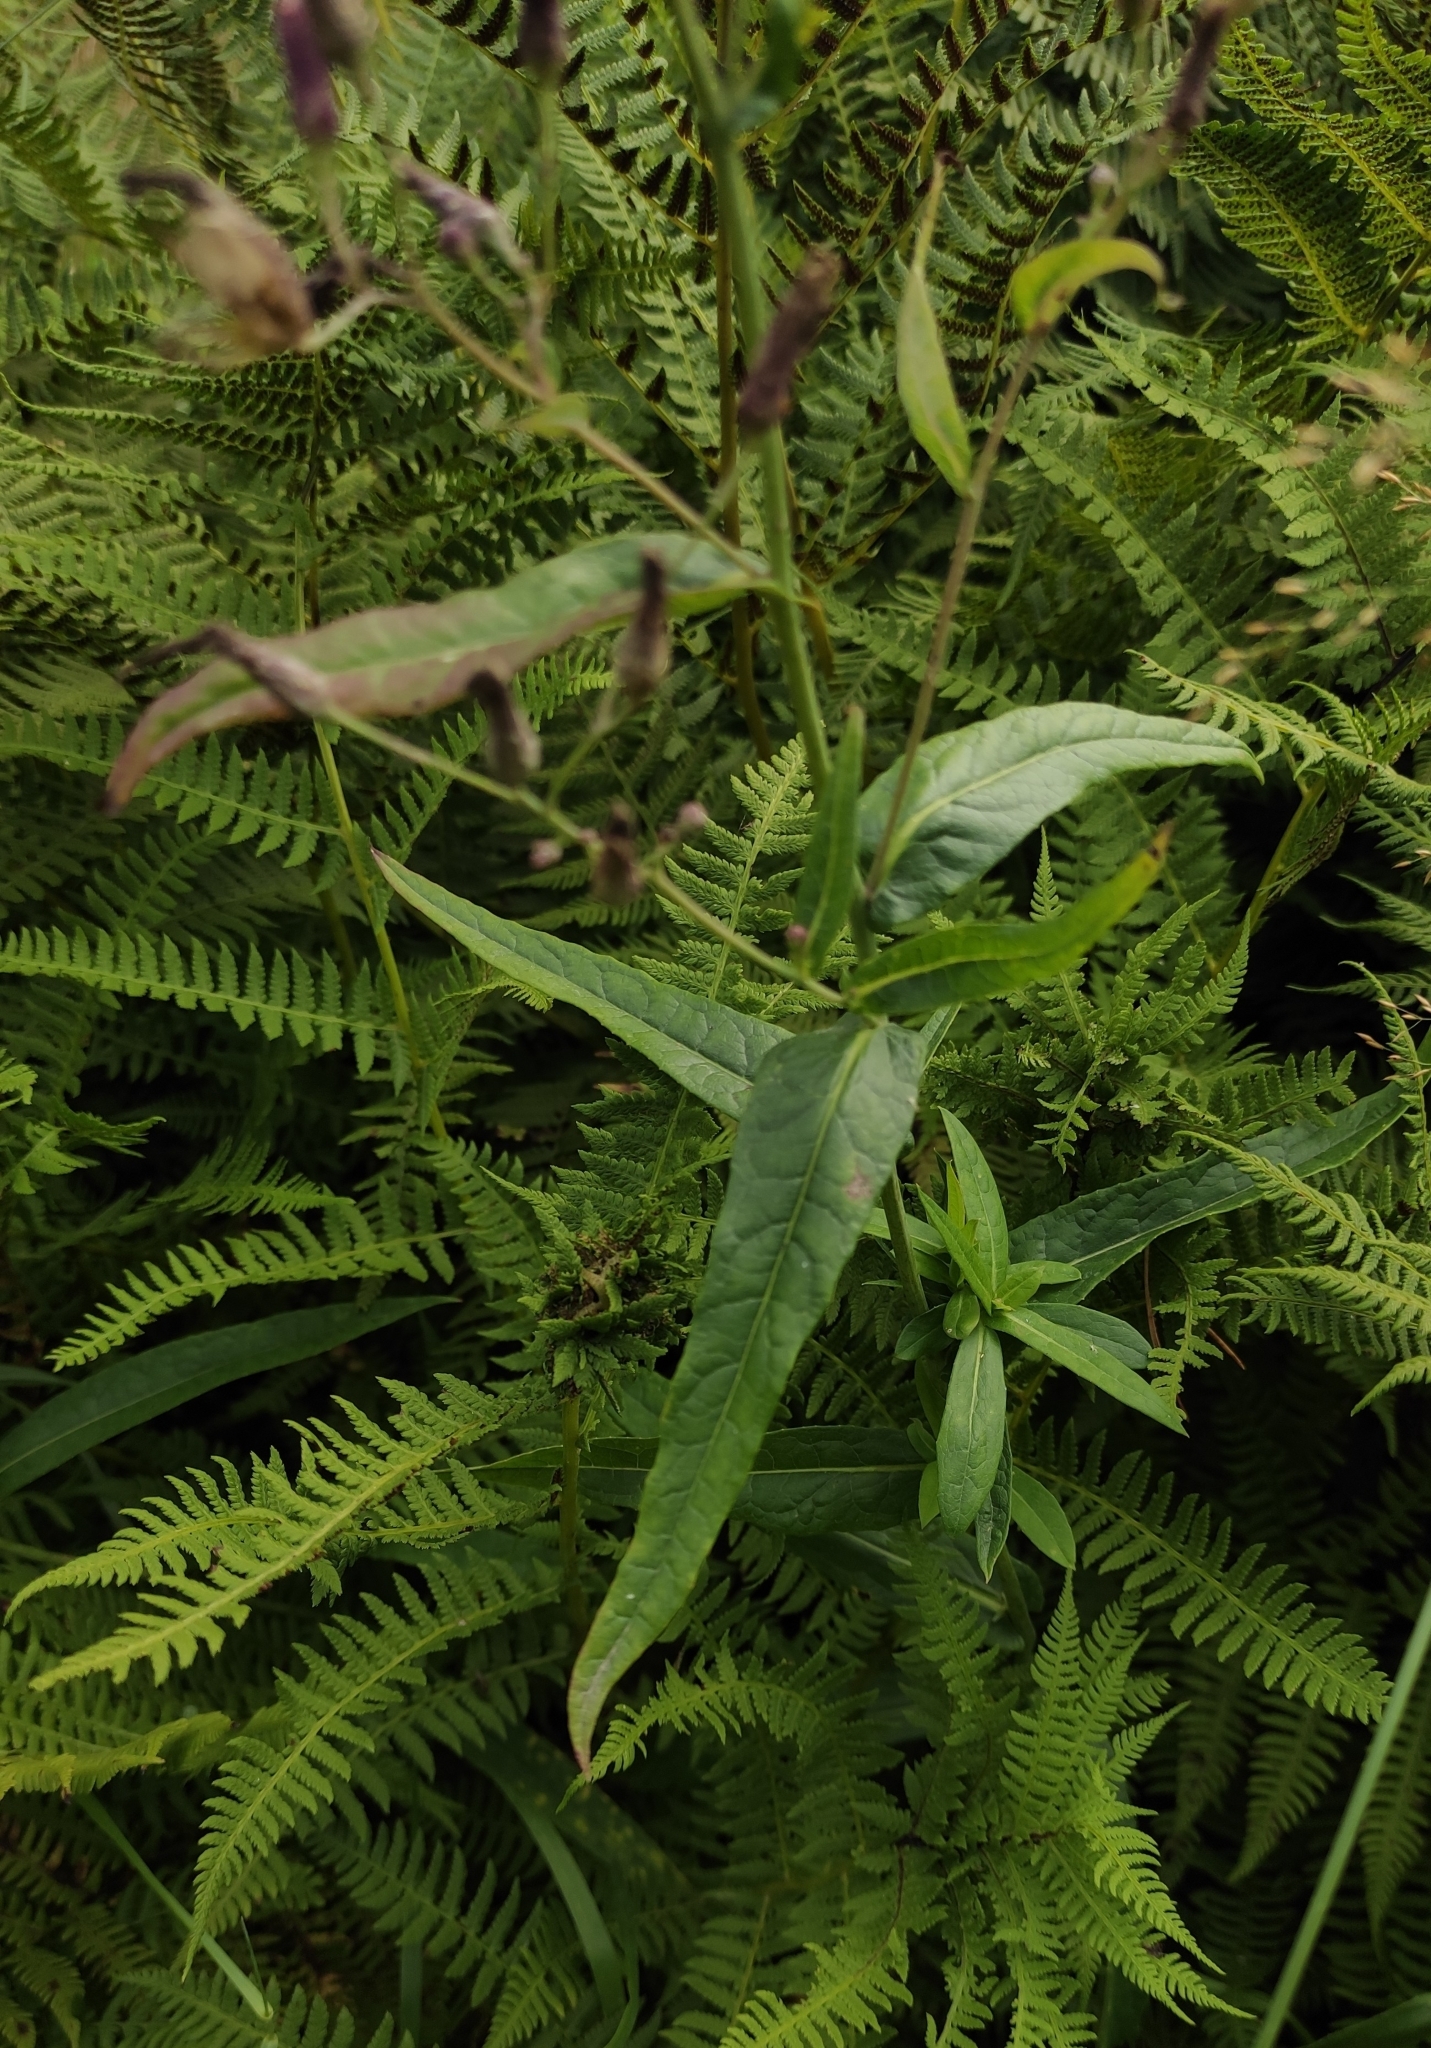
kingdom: Plantae
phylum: Tracheophyta
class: Magnoliopsida
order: Asterales
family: Asteraceae
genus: Lactuca
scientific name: Lactuca sibirica
